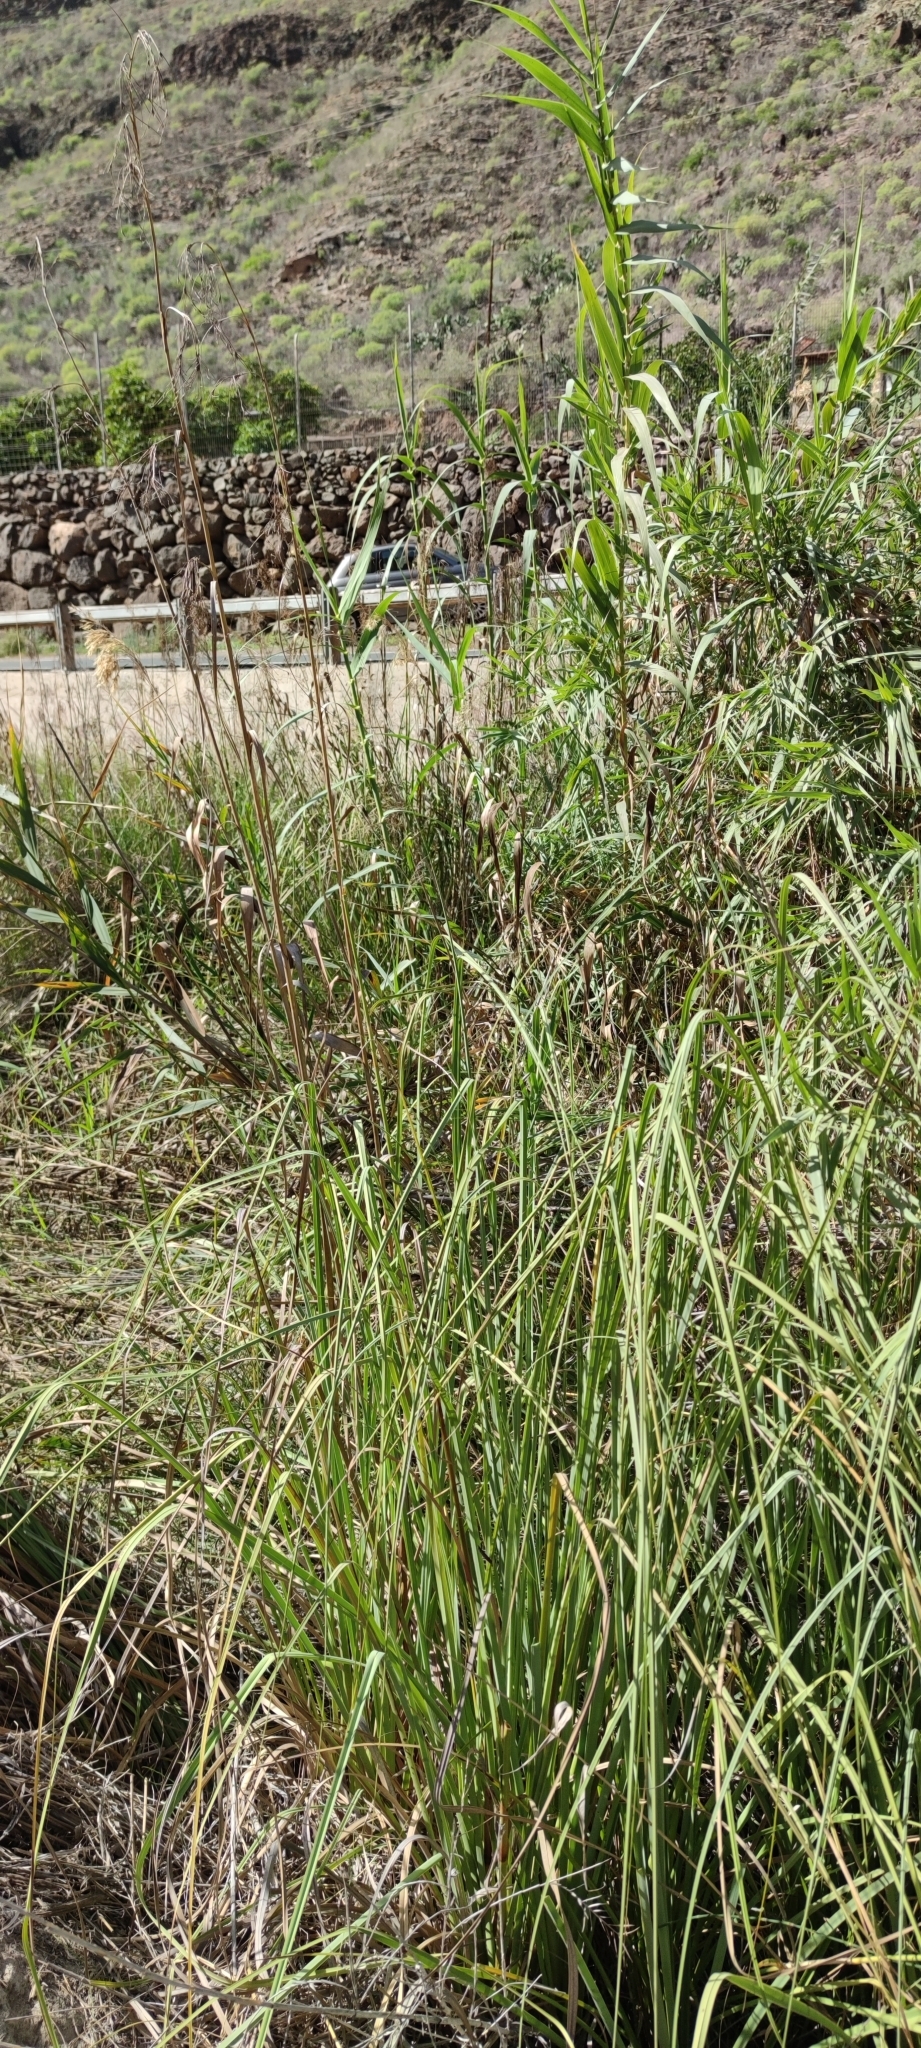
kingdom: Plantae
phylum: Tracheophyta
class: Liliopsida
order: Poales
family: Cyperaceae
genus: Cladium
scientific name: Cladium mariscus
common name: Great fen-sedge
